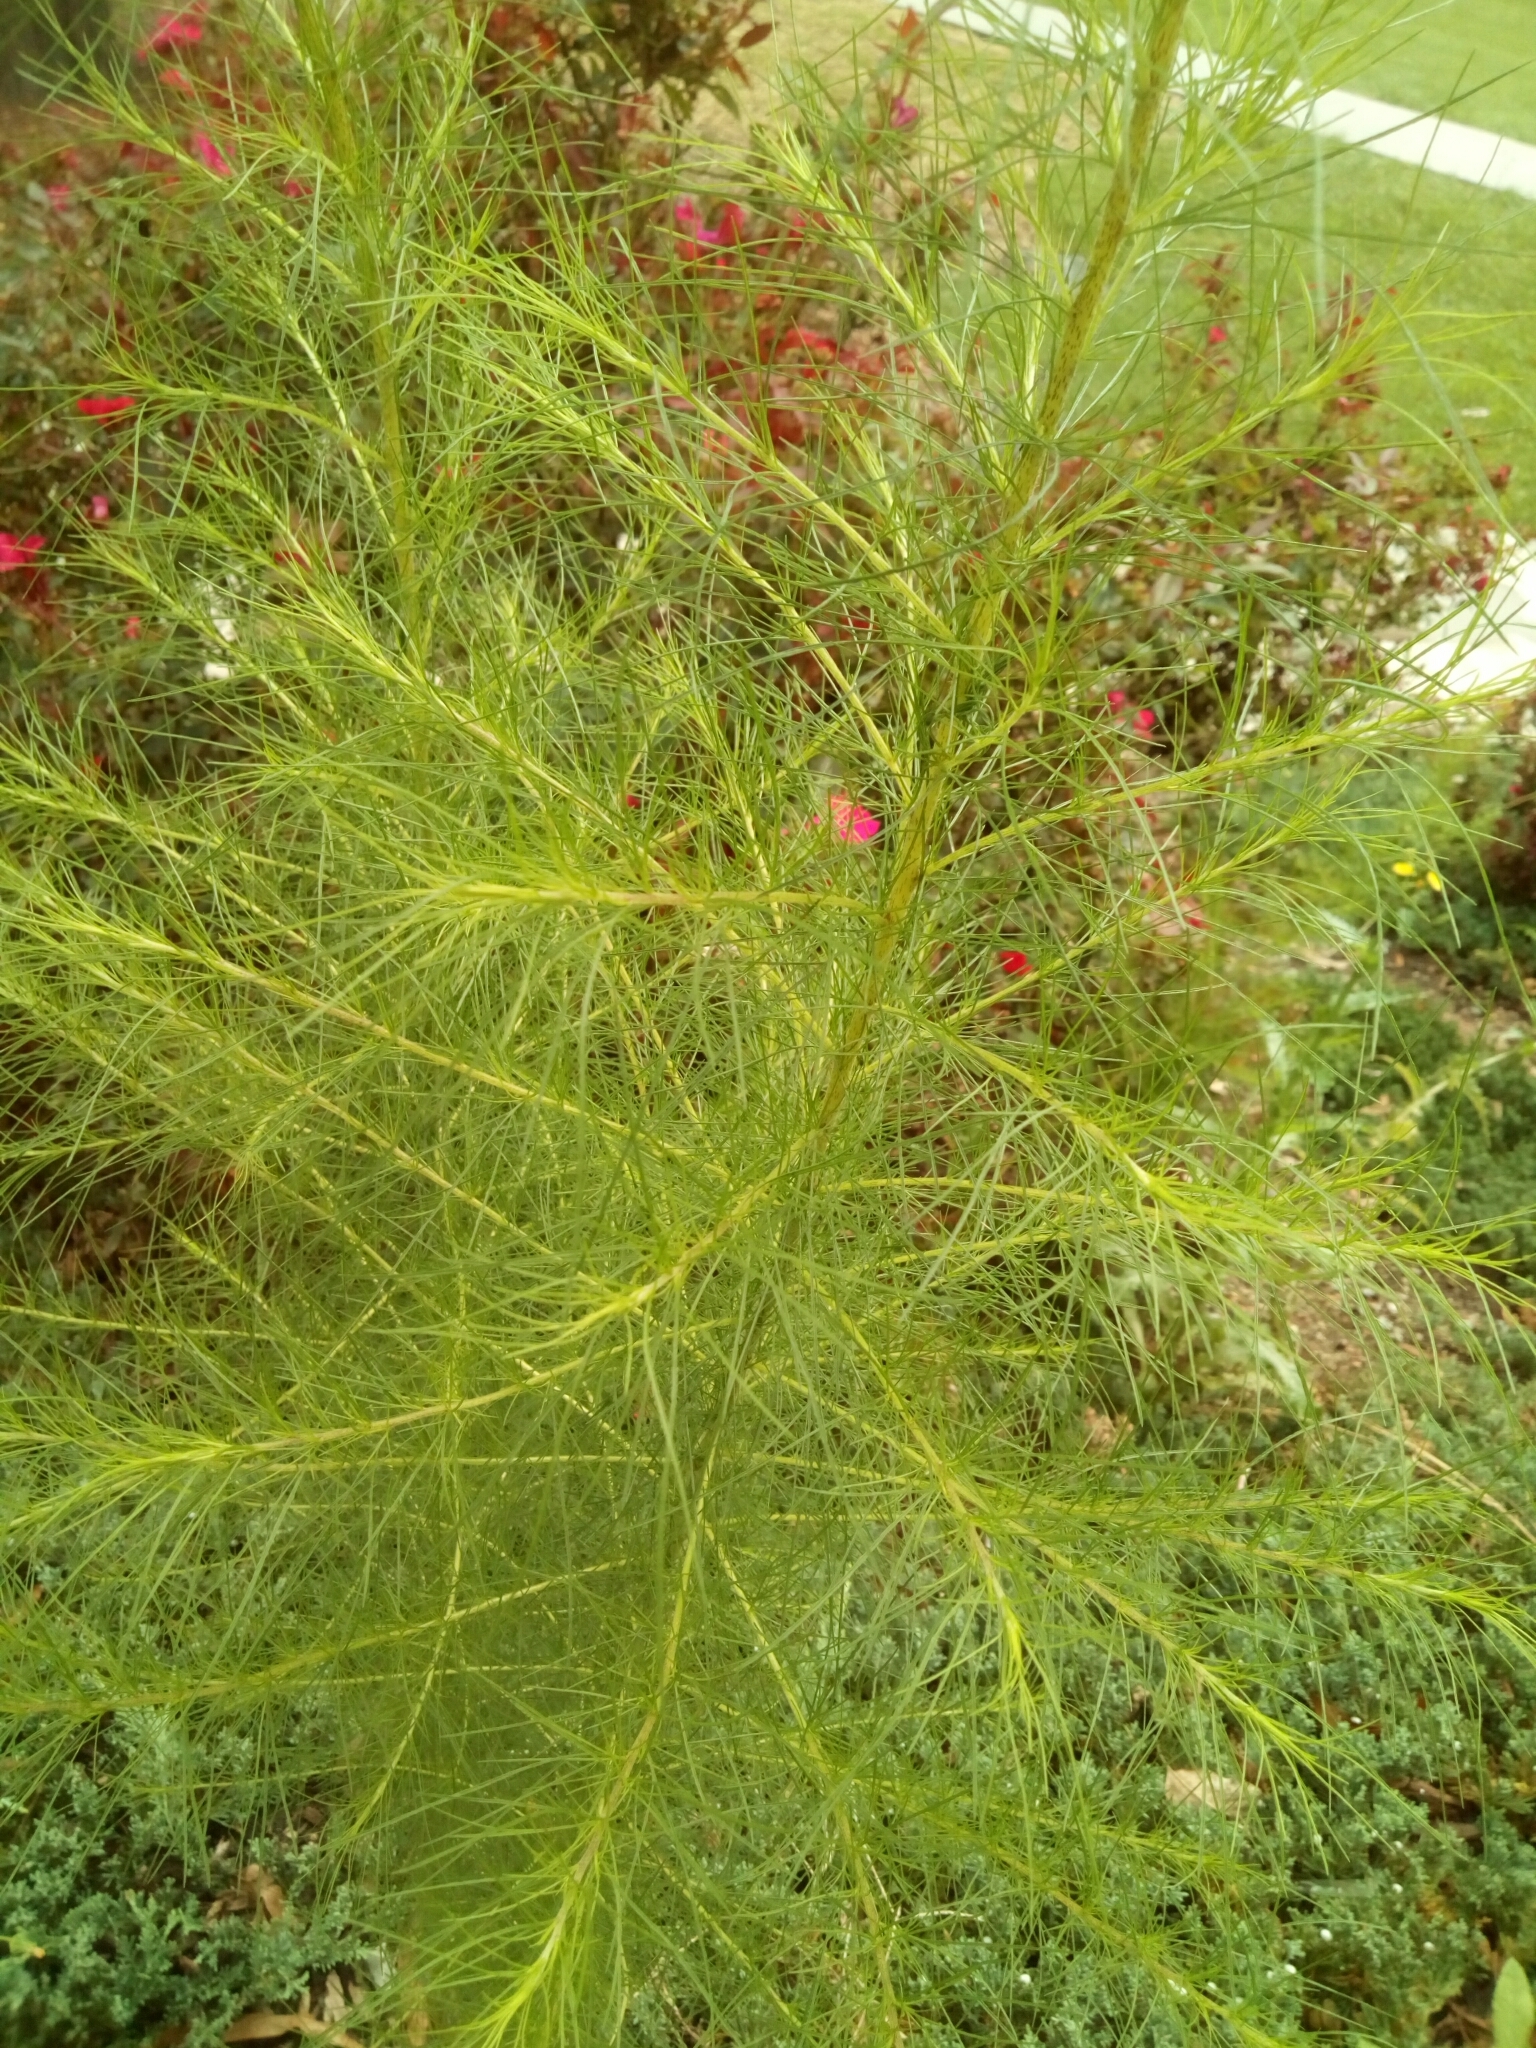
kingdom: Plantae
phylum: Tracheophyta
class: Magnoliopsida
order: Asterales
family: Asteraceae
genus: Eupatorium
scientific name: Eupatorium capillifolium
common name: Dog-fennel
